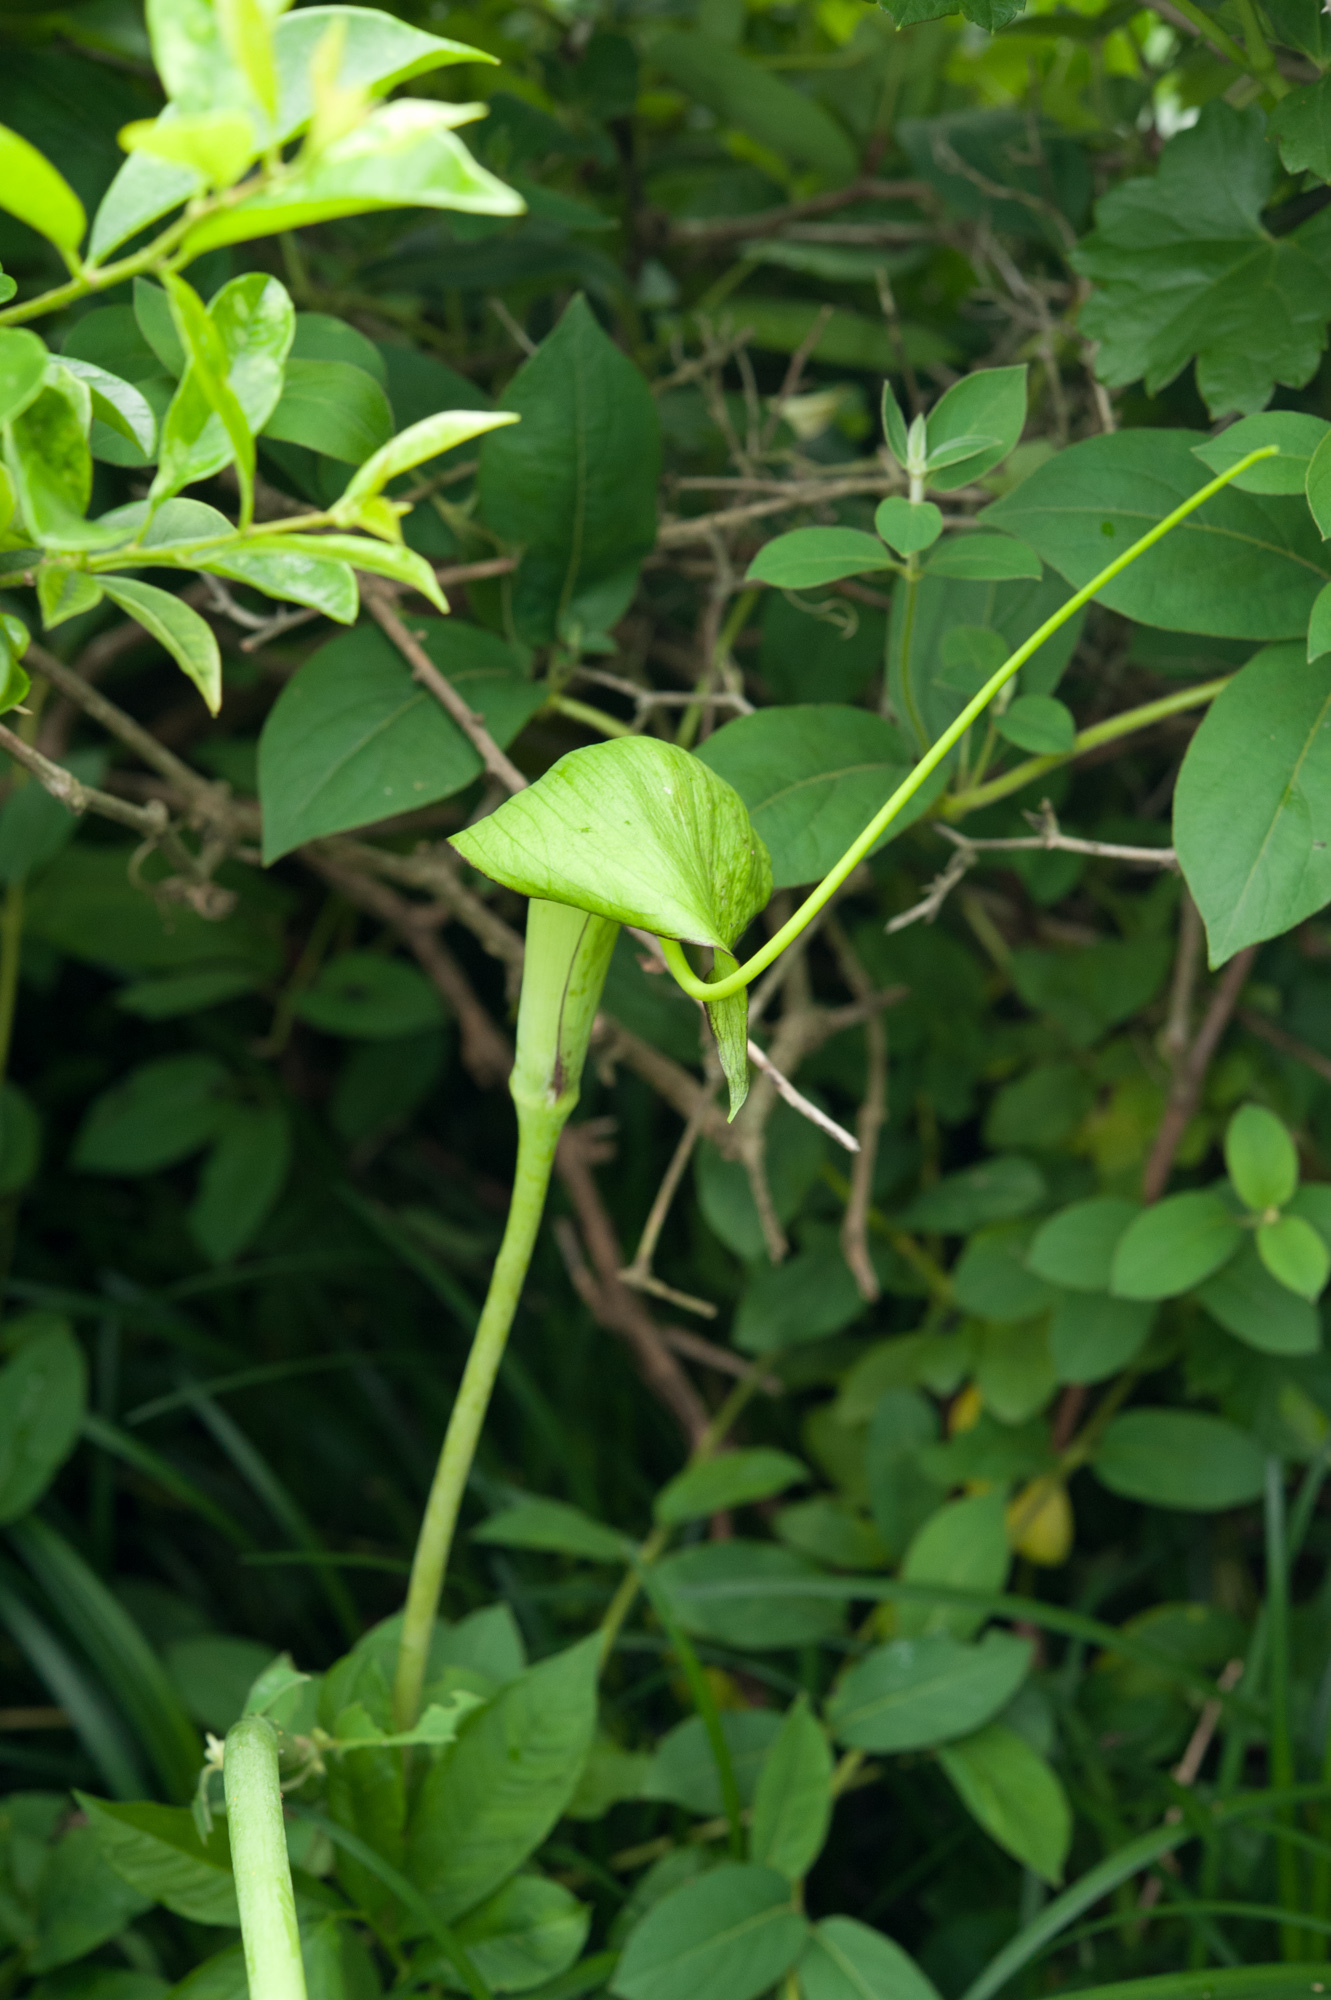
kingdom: Plantae
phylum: Tracheophyta
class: Liliopsida
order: Alismatales
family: Araceae
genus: Arisaema
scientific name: Arisaema heterophyllum
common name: Dancing crane cobra lily
